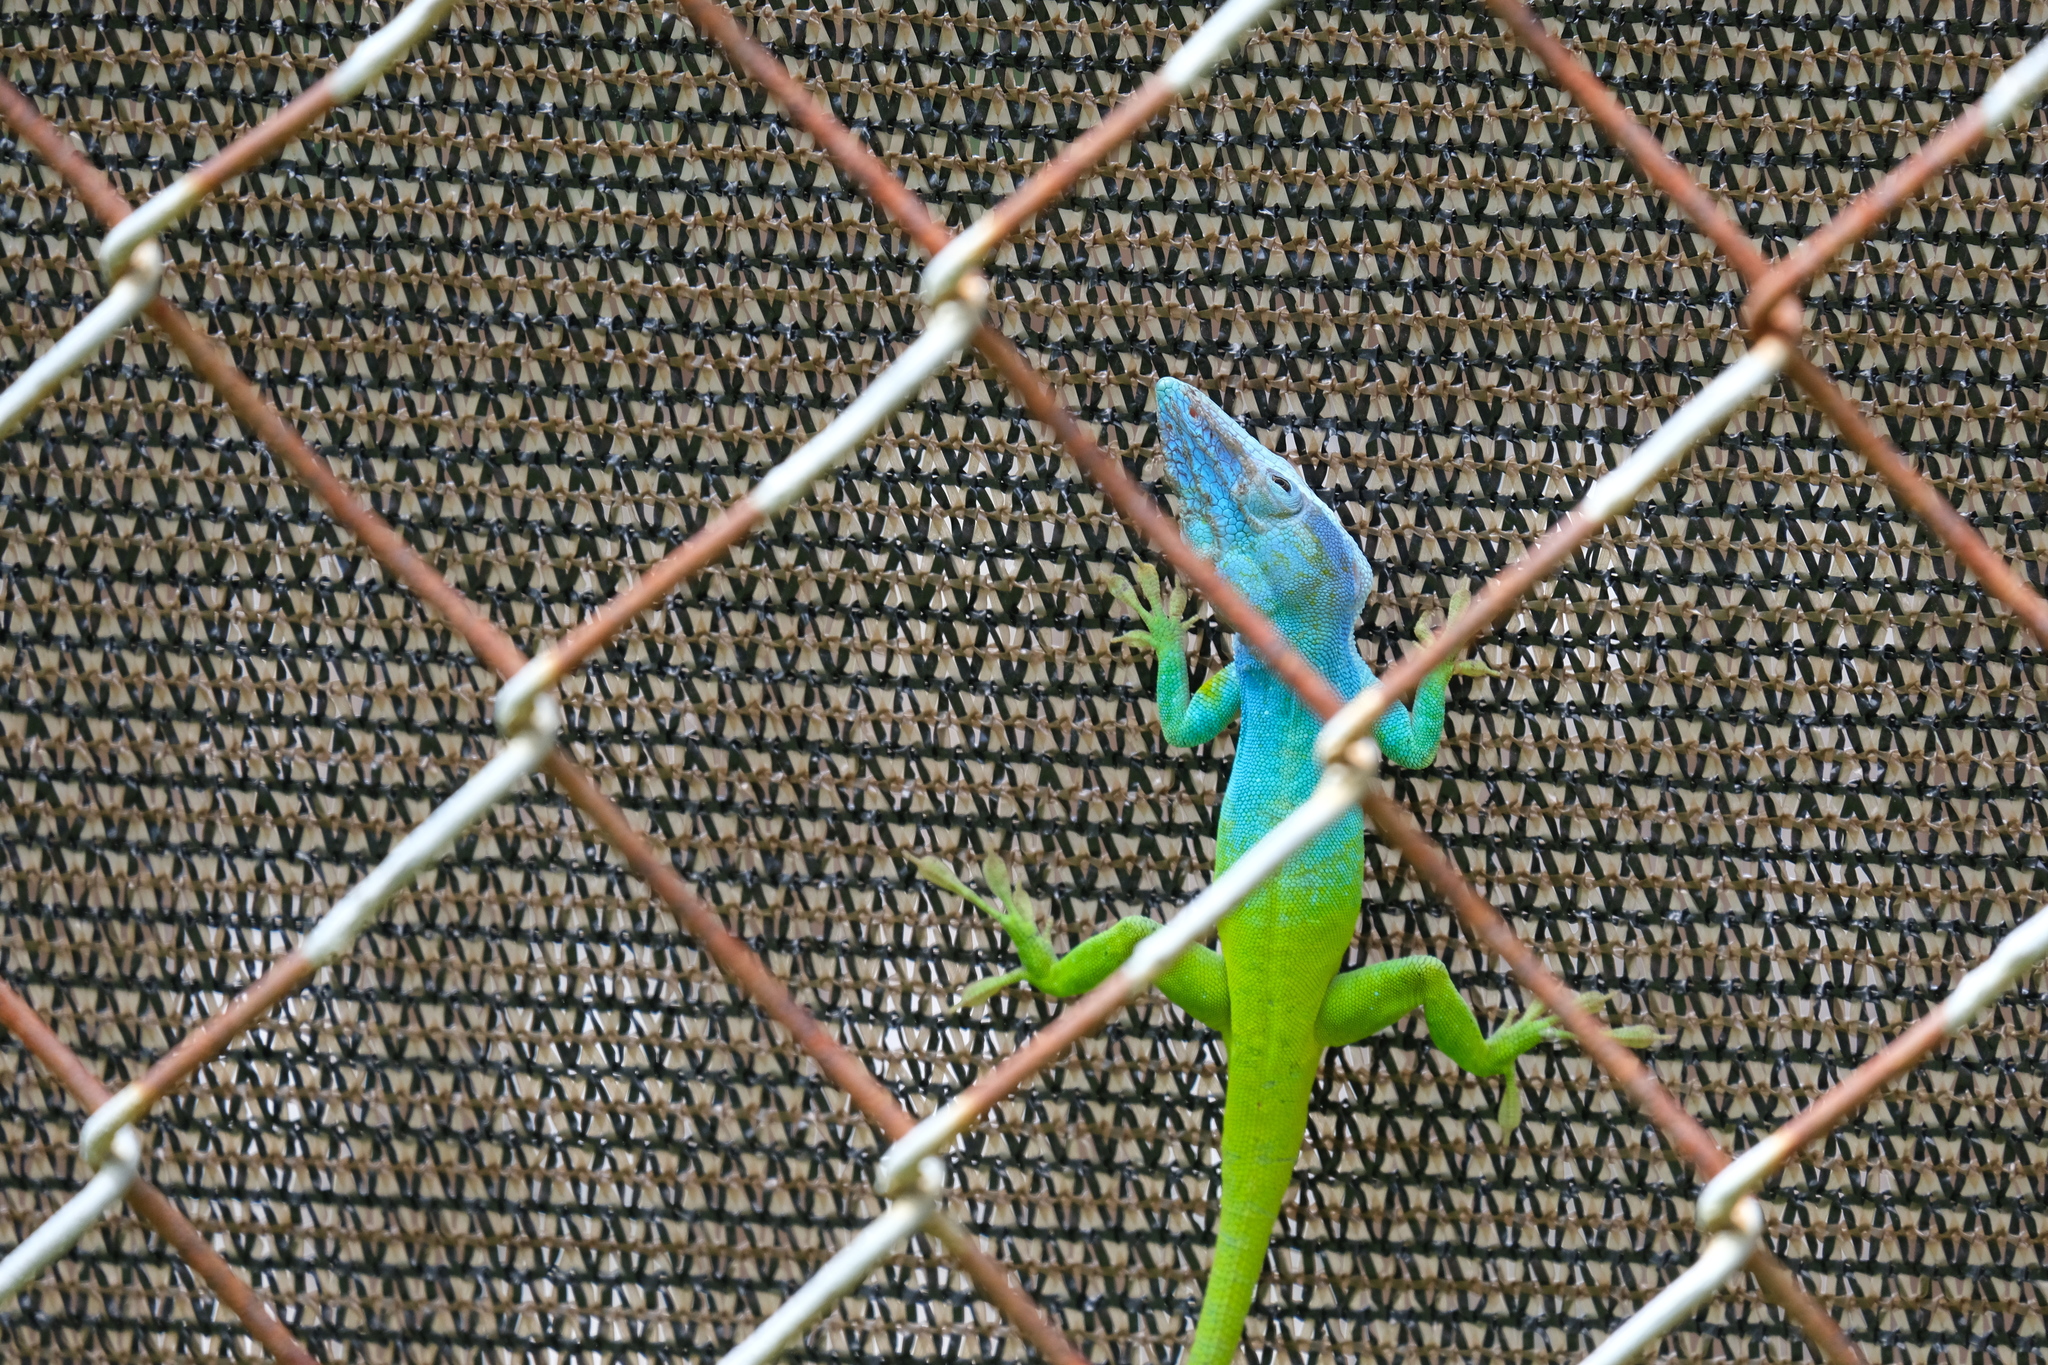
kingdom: Animalia
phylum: Chordata
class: Squamata
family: Dactyloidae
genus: Anolis
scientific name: Anolis allisoni
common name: Allison's anole
